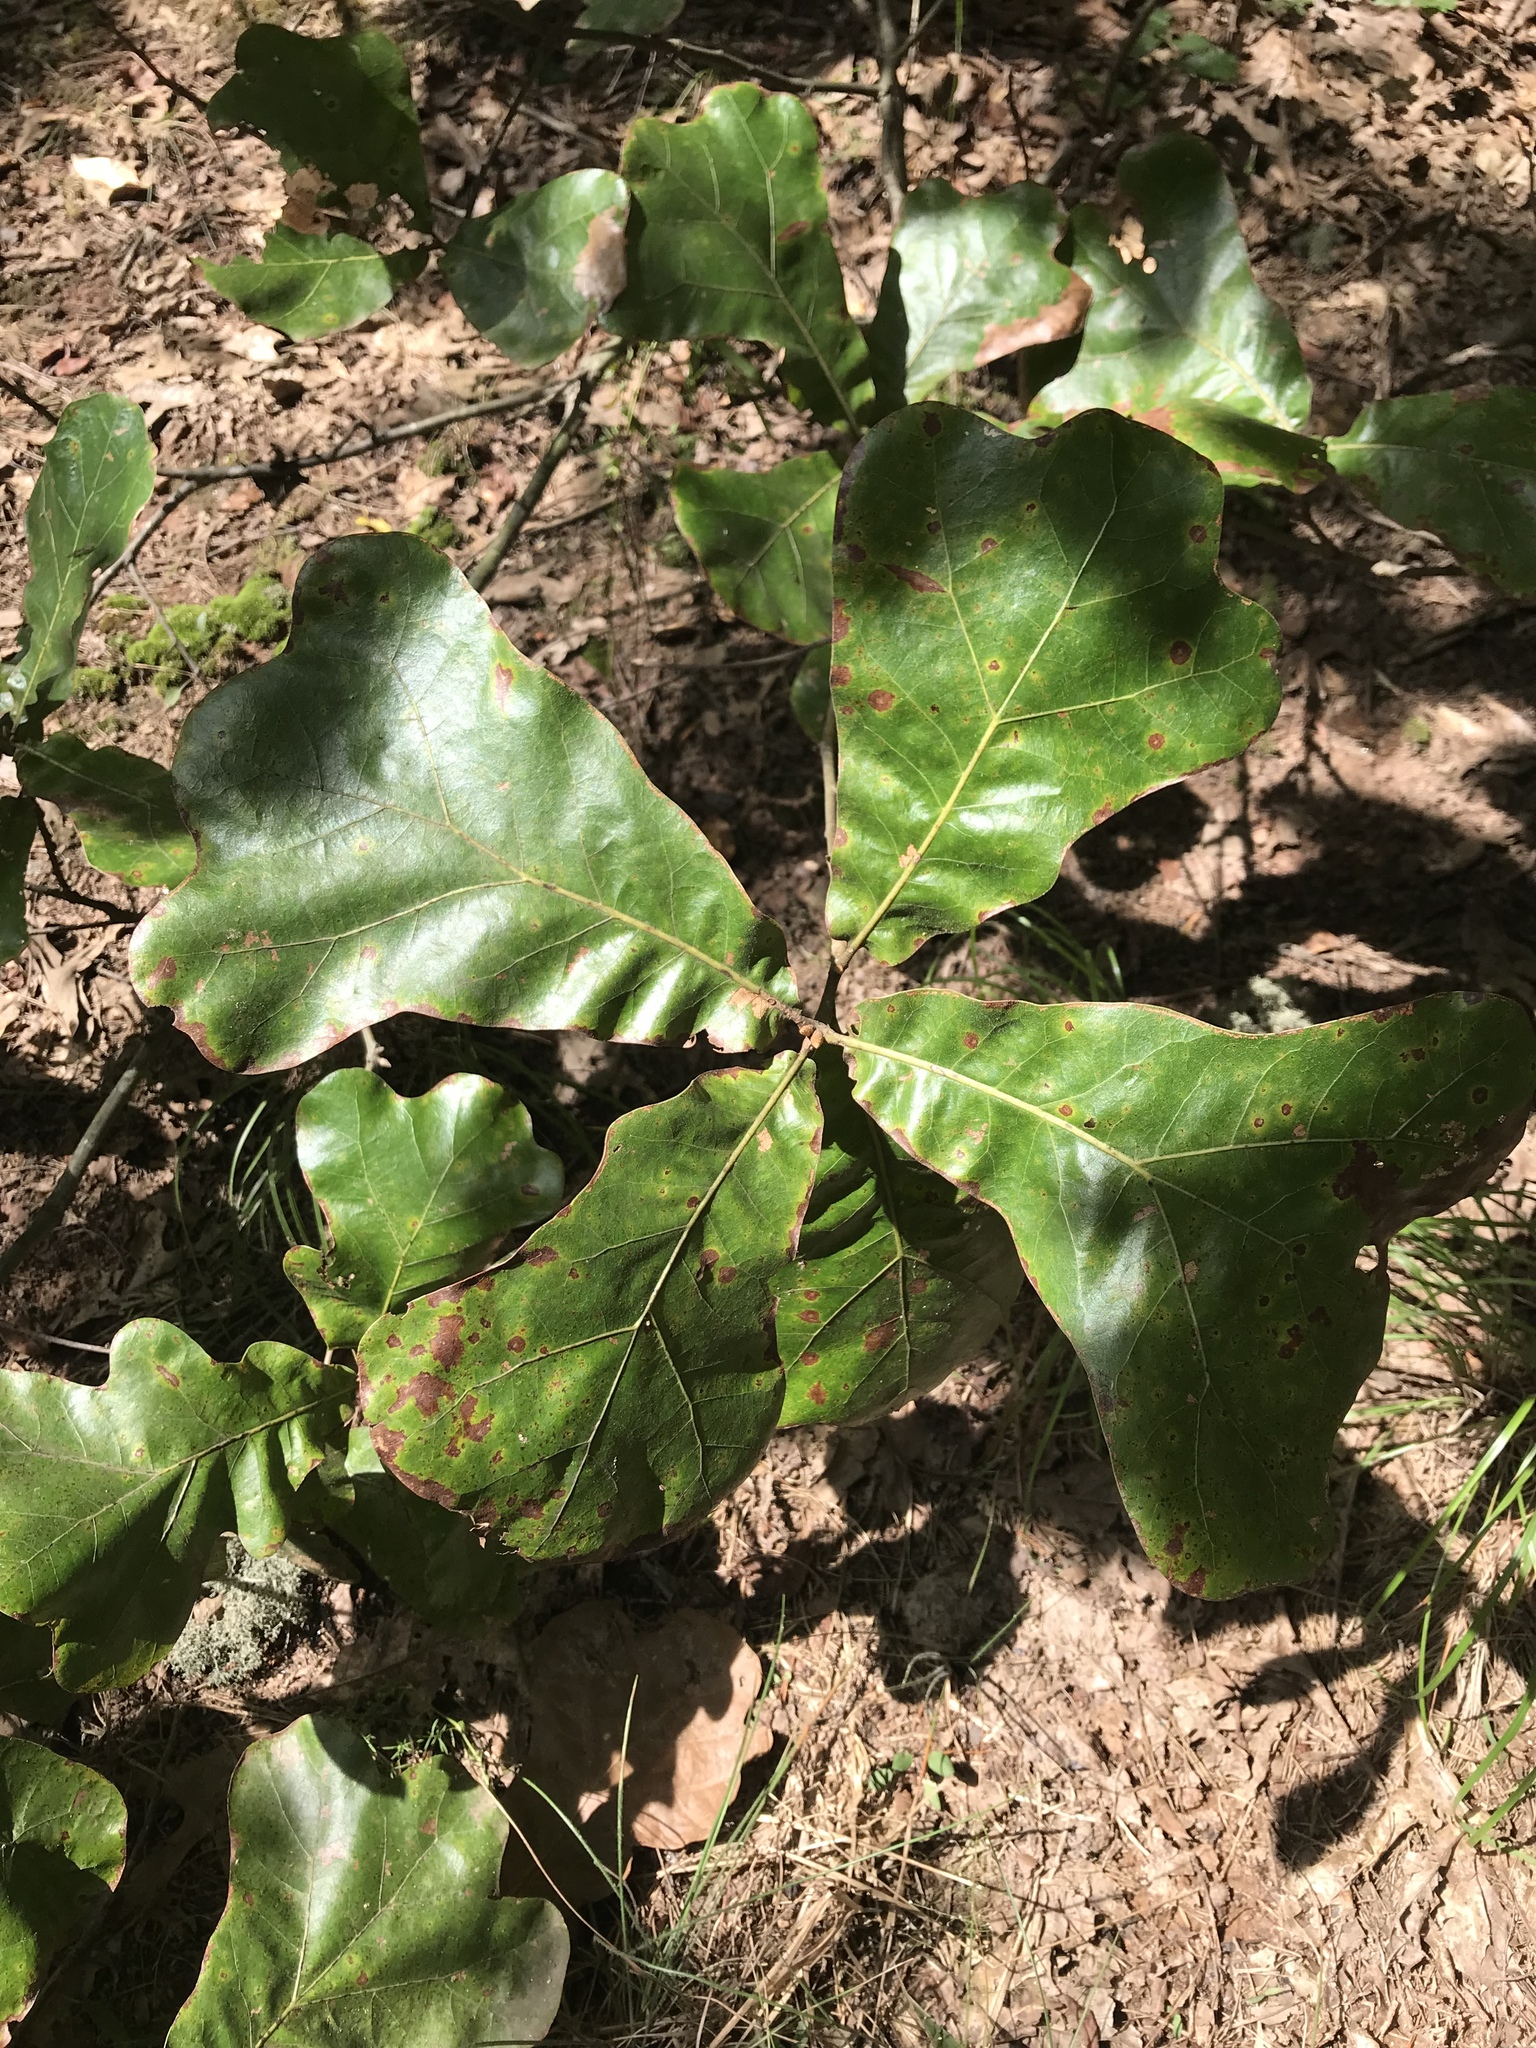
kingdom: Plantae
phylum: Tracheophyta
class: Magnoliopsida
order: Fagales
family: Fagaceae
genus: Quercus
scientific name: Quercus marilandica
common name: Blackjack oak
